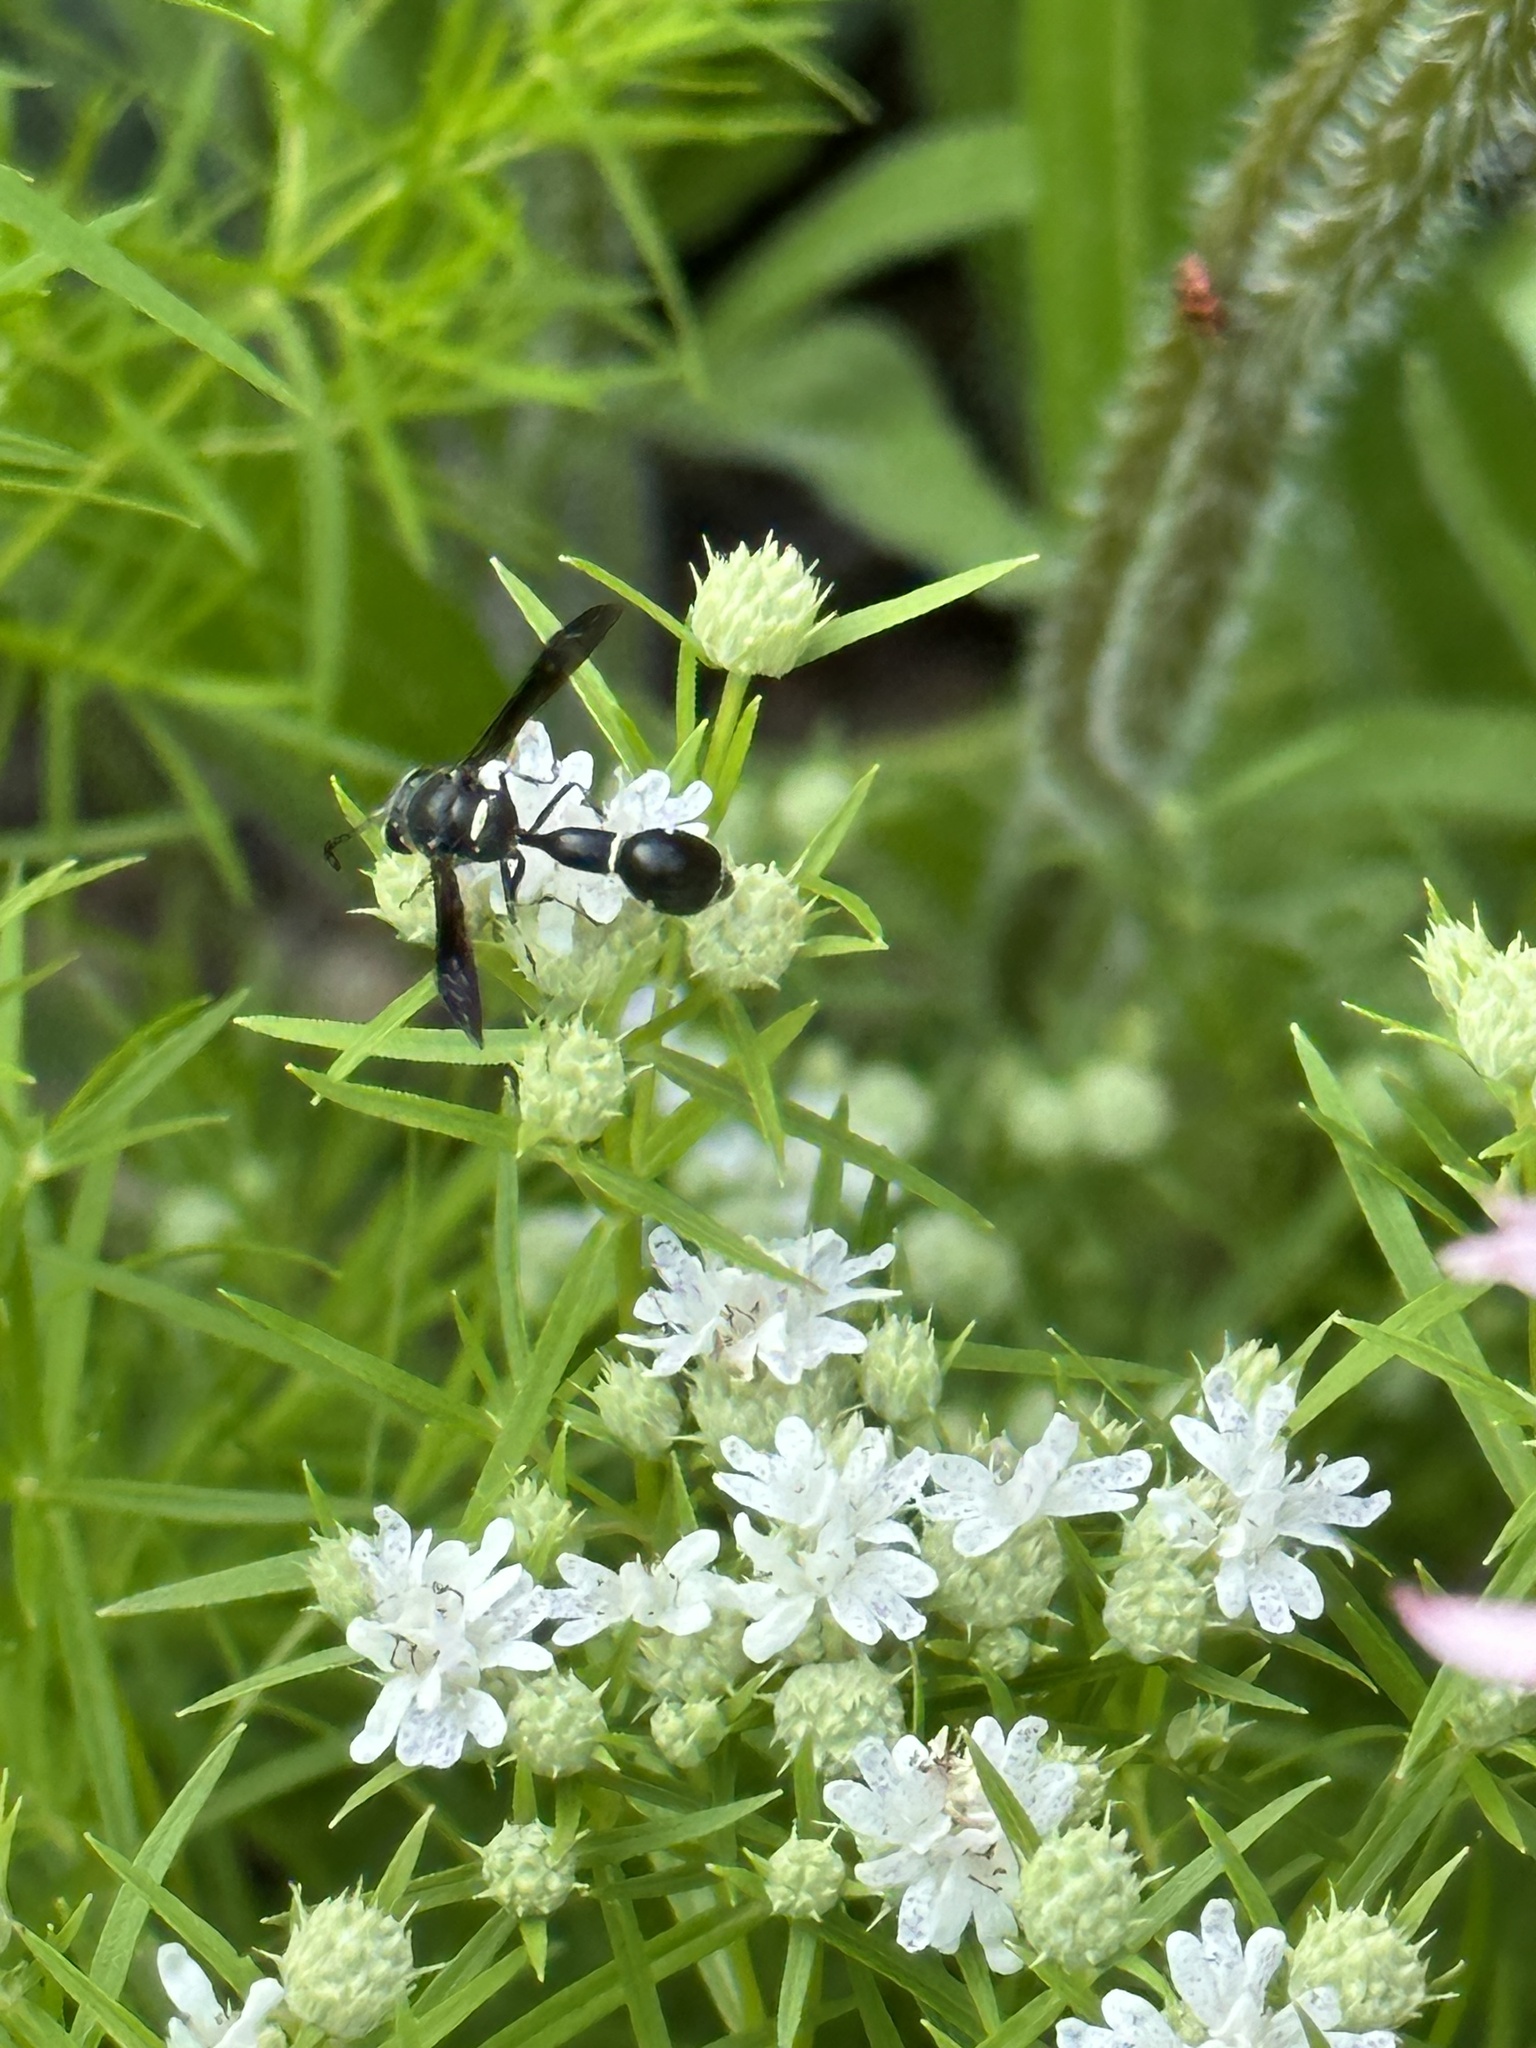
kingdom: Animalia
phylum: Arthropoda
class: Insecta
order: Hymenoptera
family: Vespidae
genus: Eumenes
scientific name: Eumenes fraternus
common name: Fraternal potter wasp
